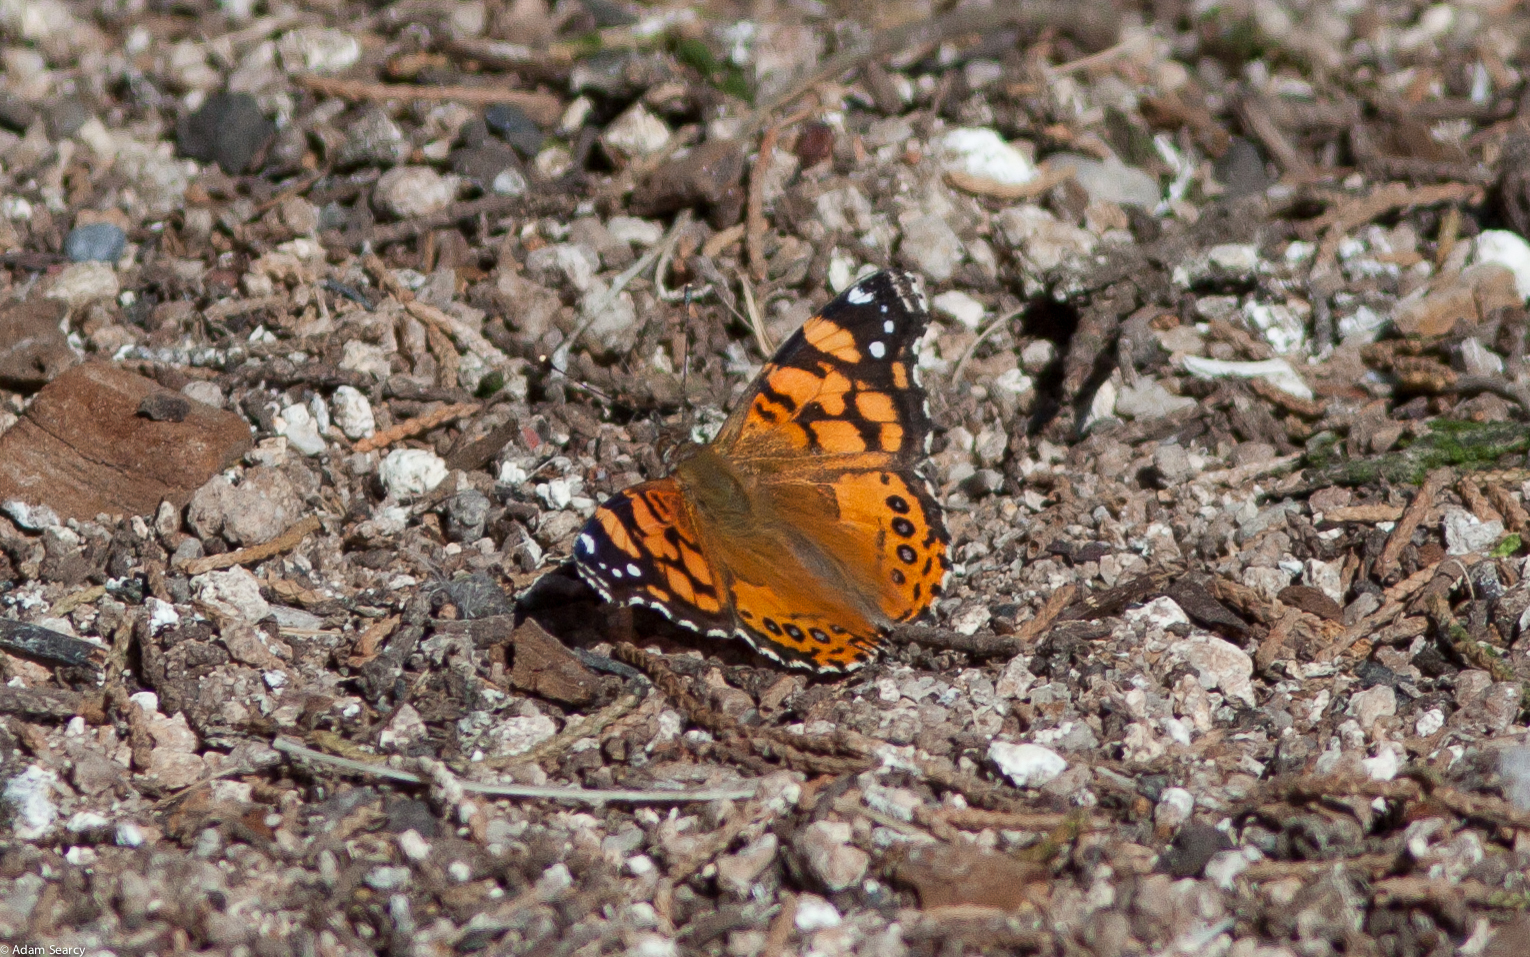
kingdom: Animalia
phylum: Arthropoda
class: Insecta
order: Lepidoptera
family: Nymphalidae
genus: Vanessa
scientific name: Vanessa annabella
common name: West coast lady
